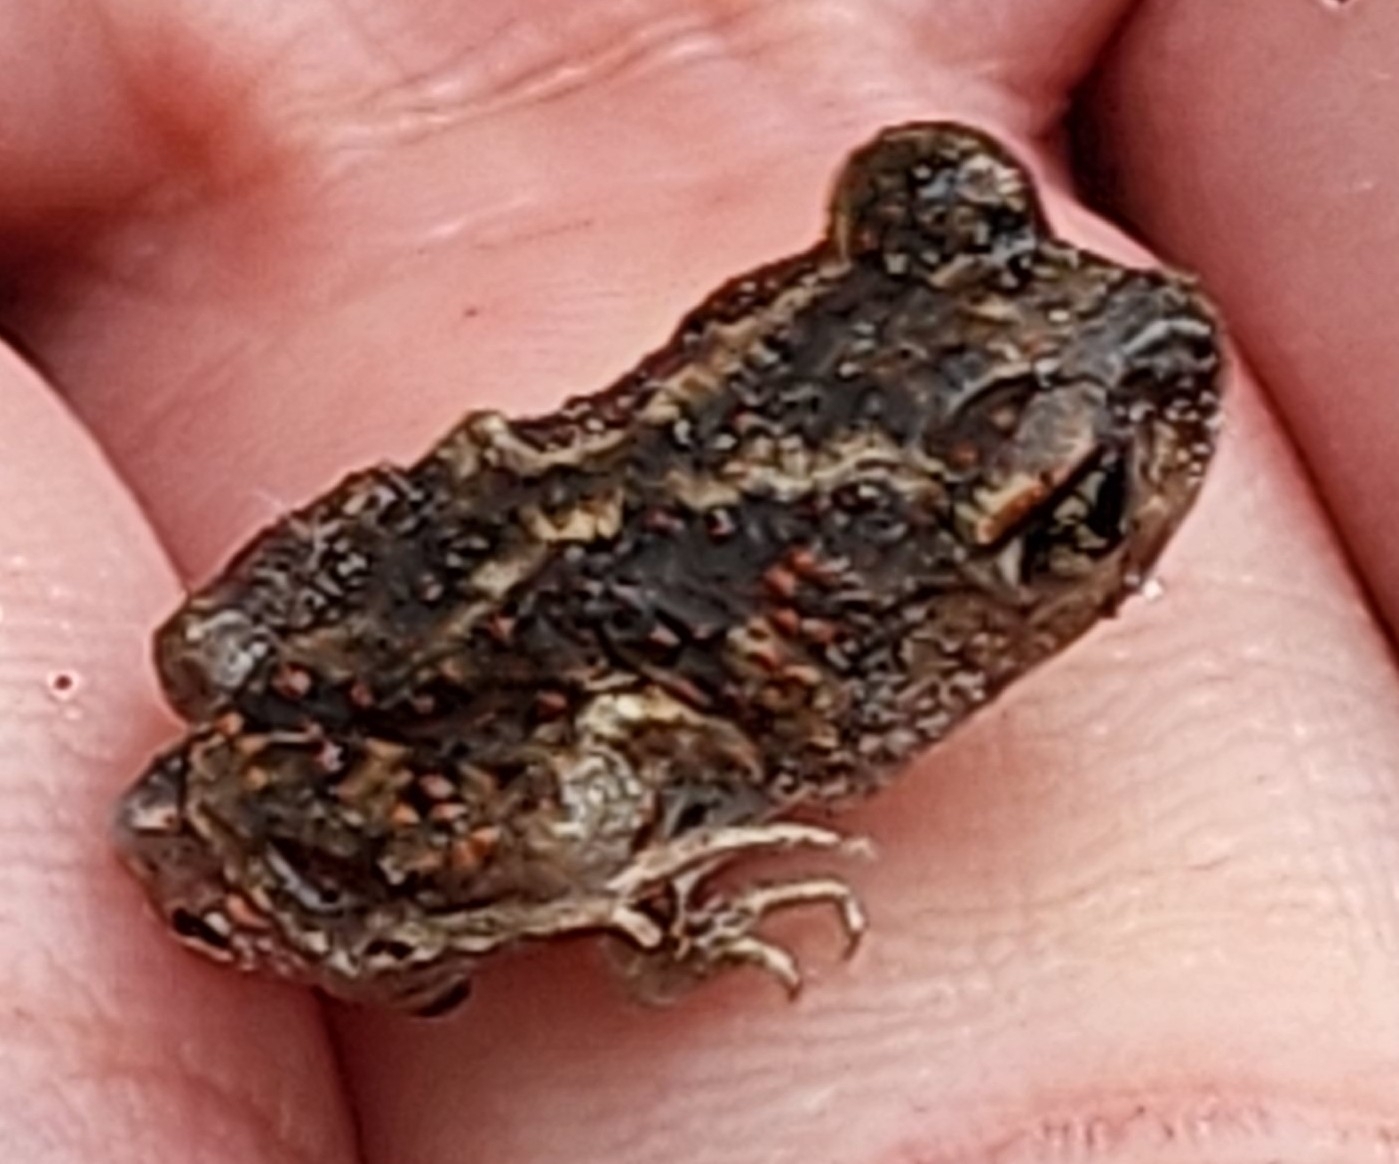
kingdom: Animalia
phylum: Chordata
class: Amphibia
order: Anura
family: Scaphiopodidae
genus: Scaphiopus
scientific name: Scaphiopus holbrookii
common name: Eastern spadefoot toad
